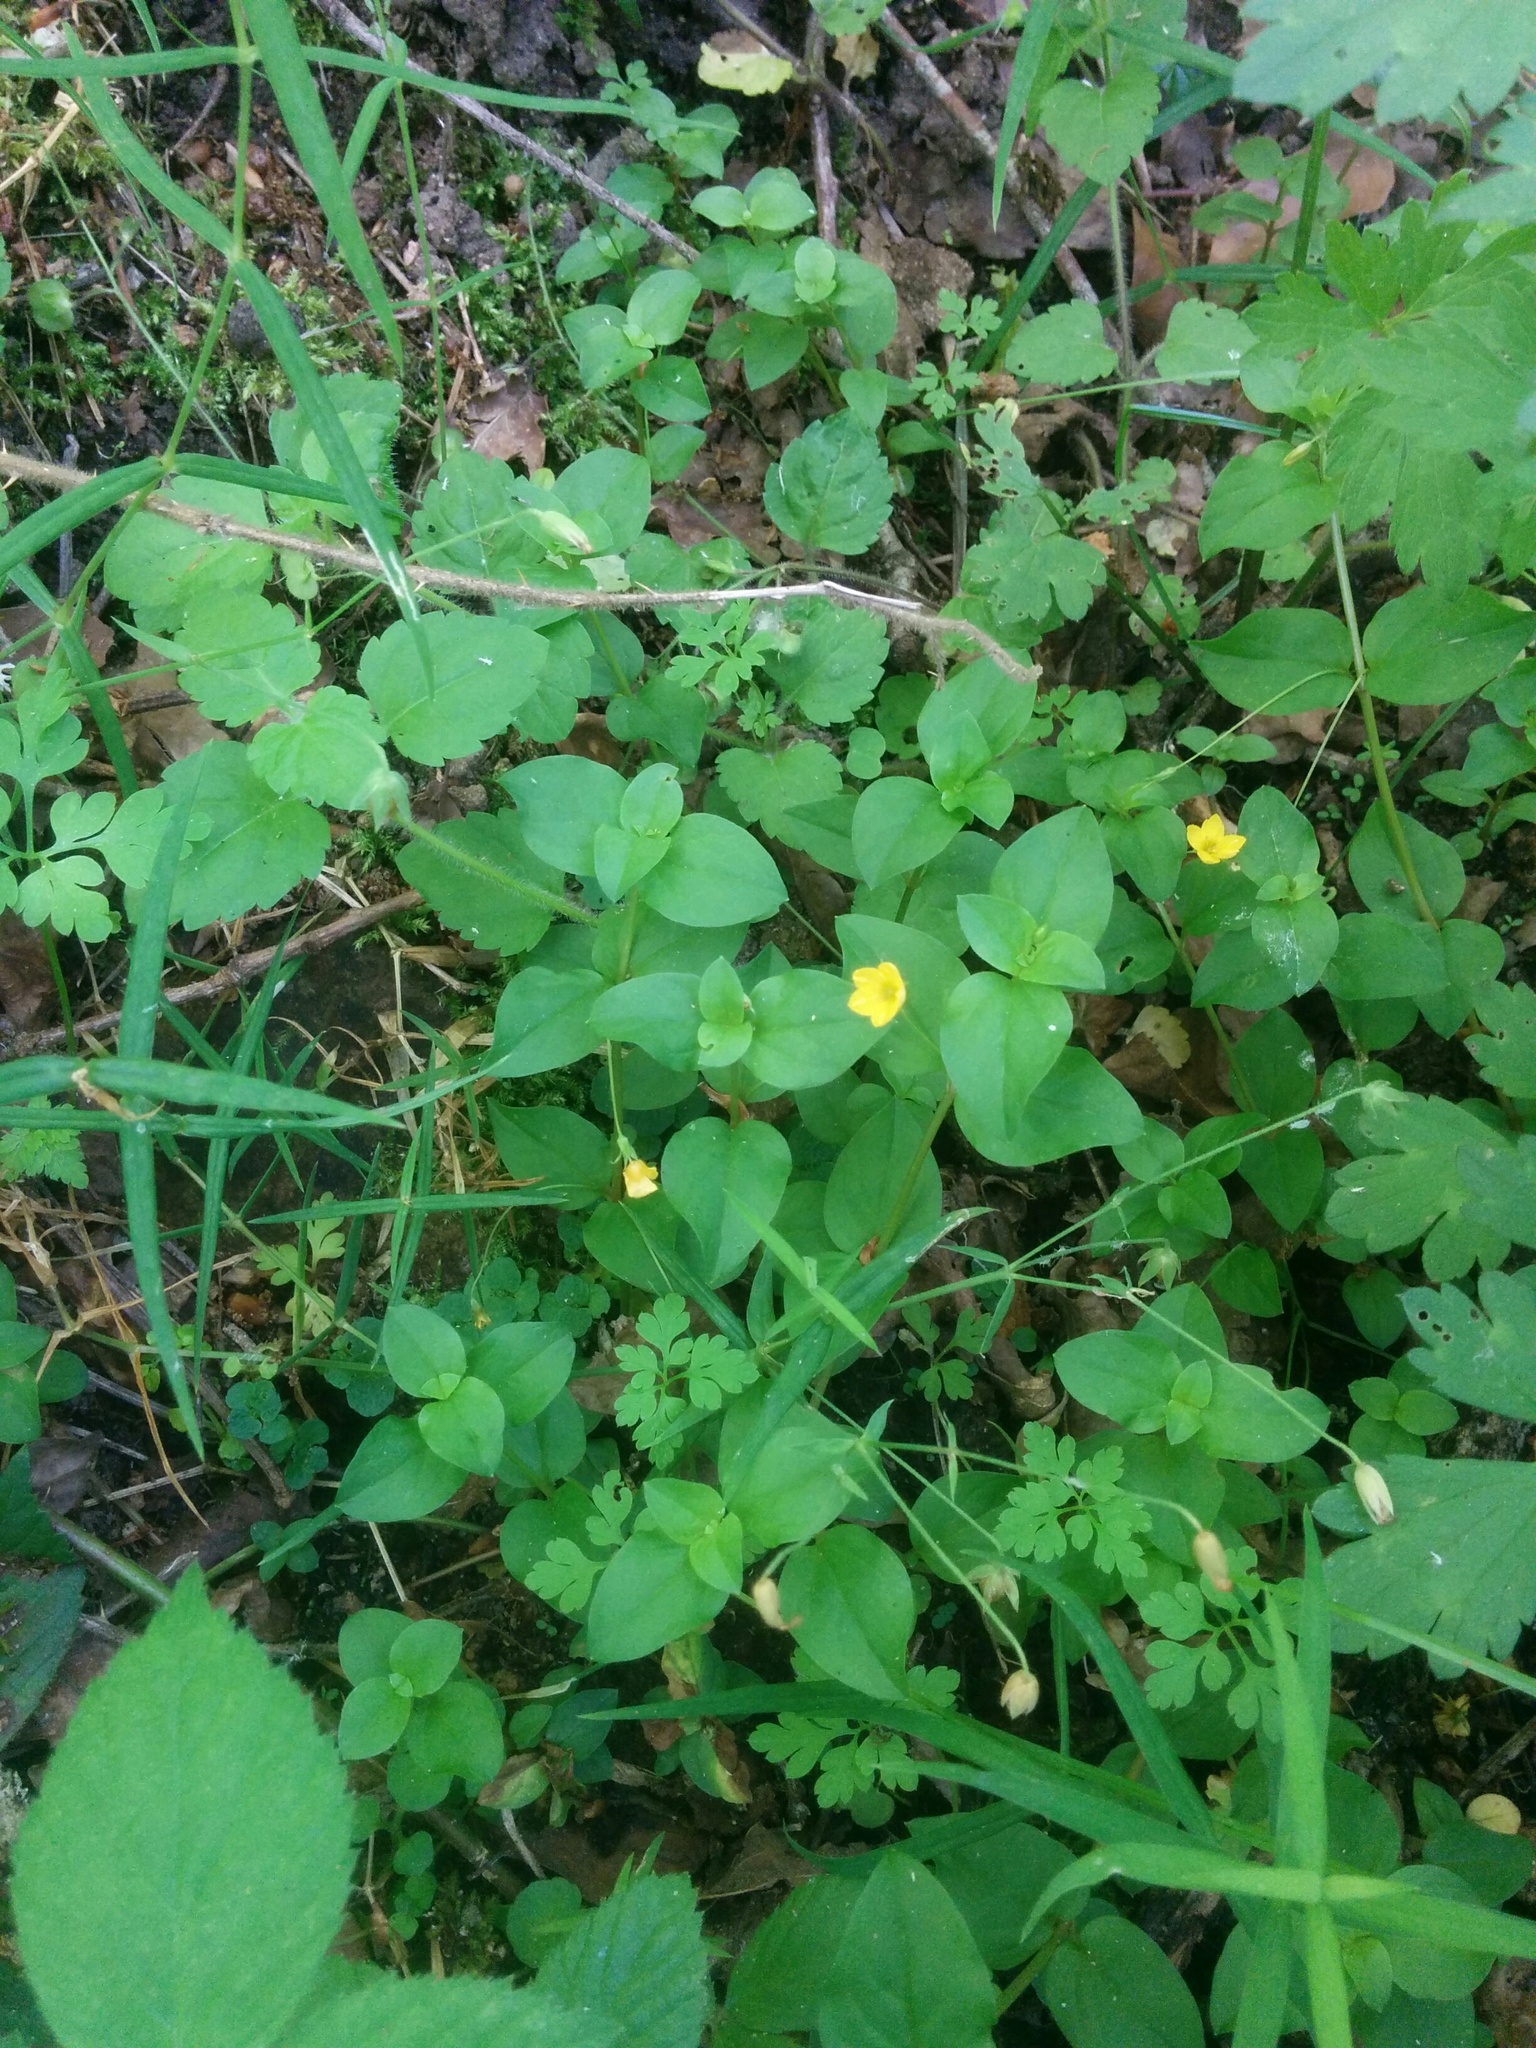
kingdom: Plantae
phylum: Tracheophyta
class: Magnoliopsida
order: Ericales
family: Primulaceae
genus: Lysimachia
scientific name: Lysimachia nemorum
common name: Yellow pimpernel
